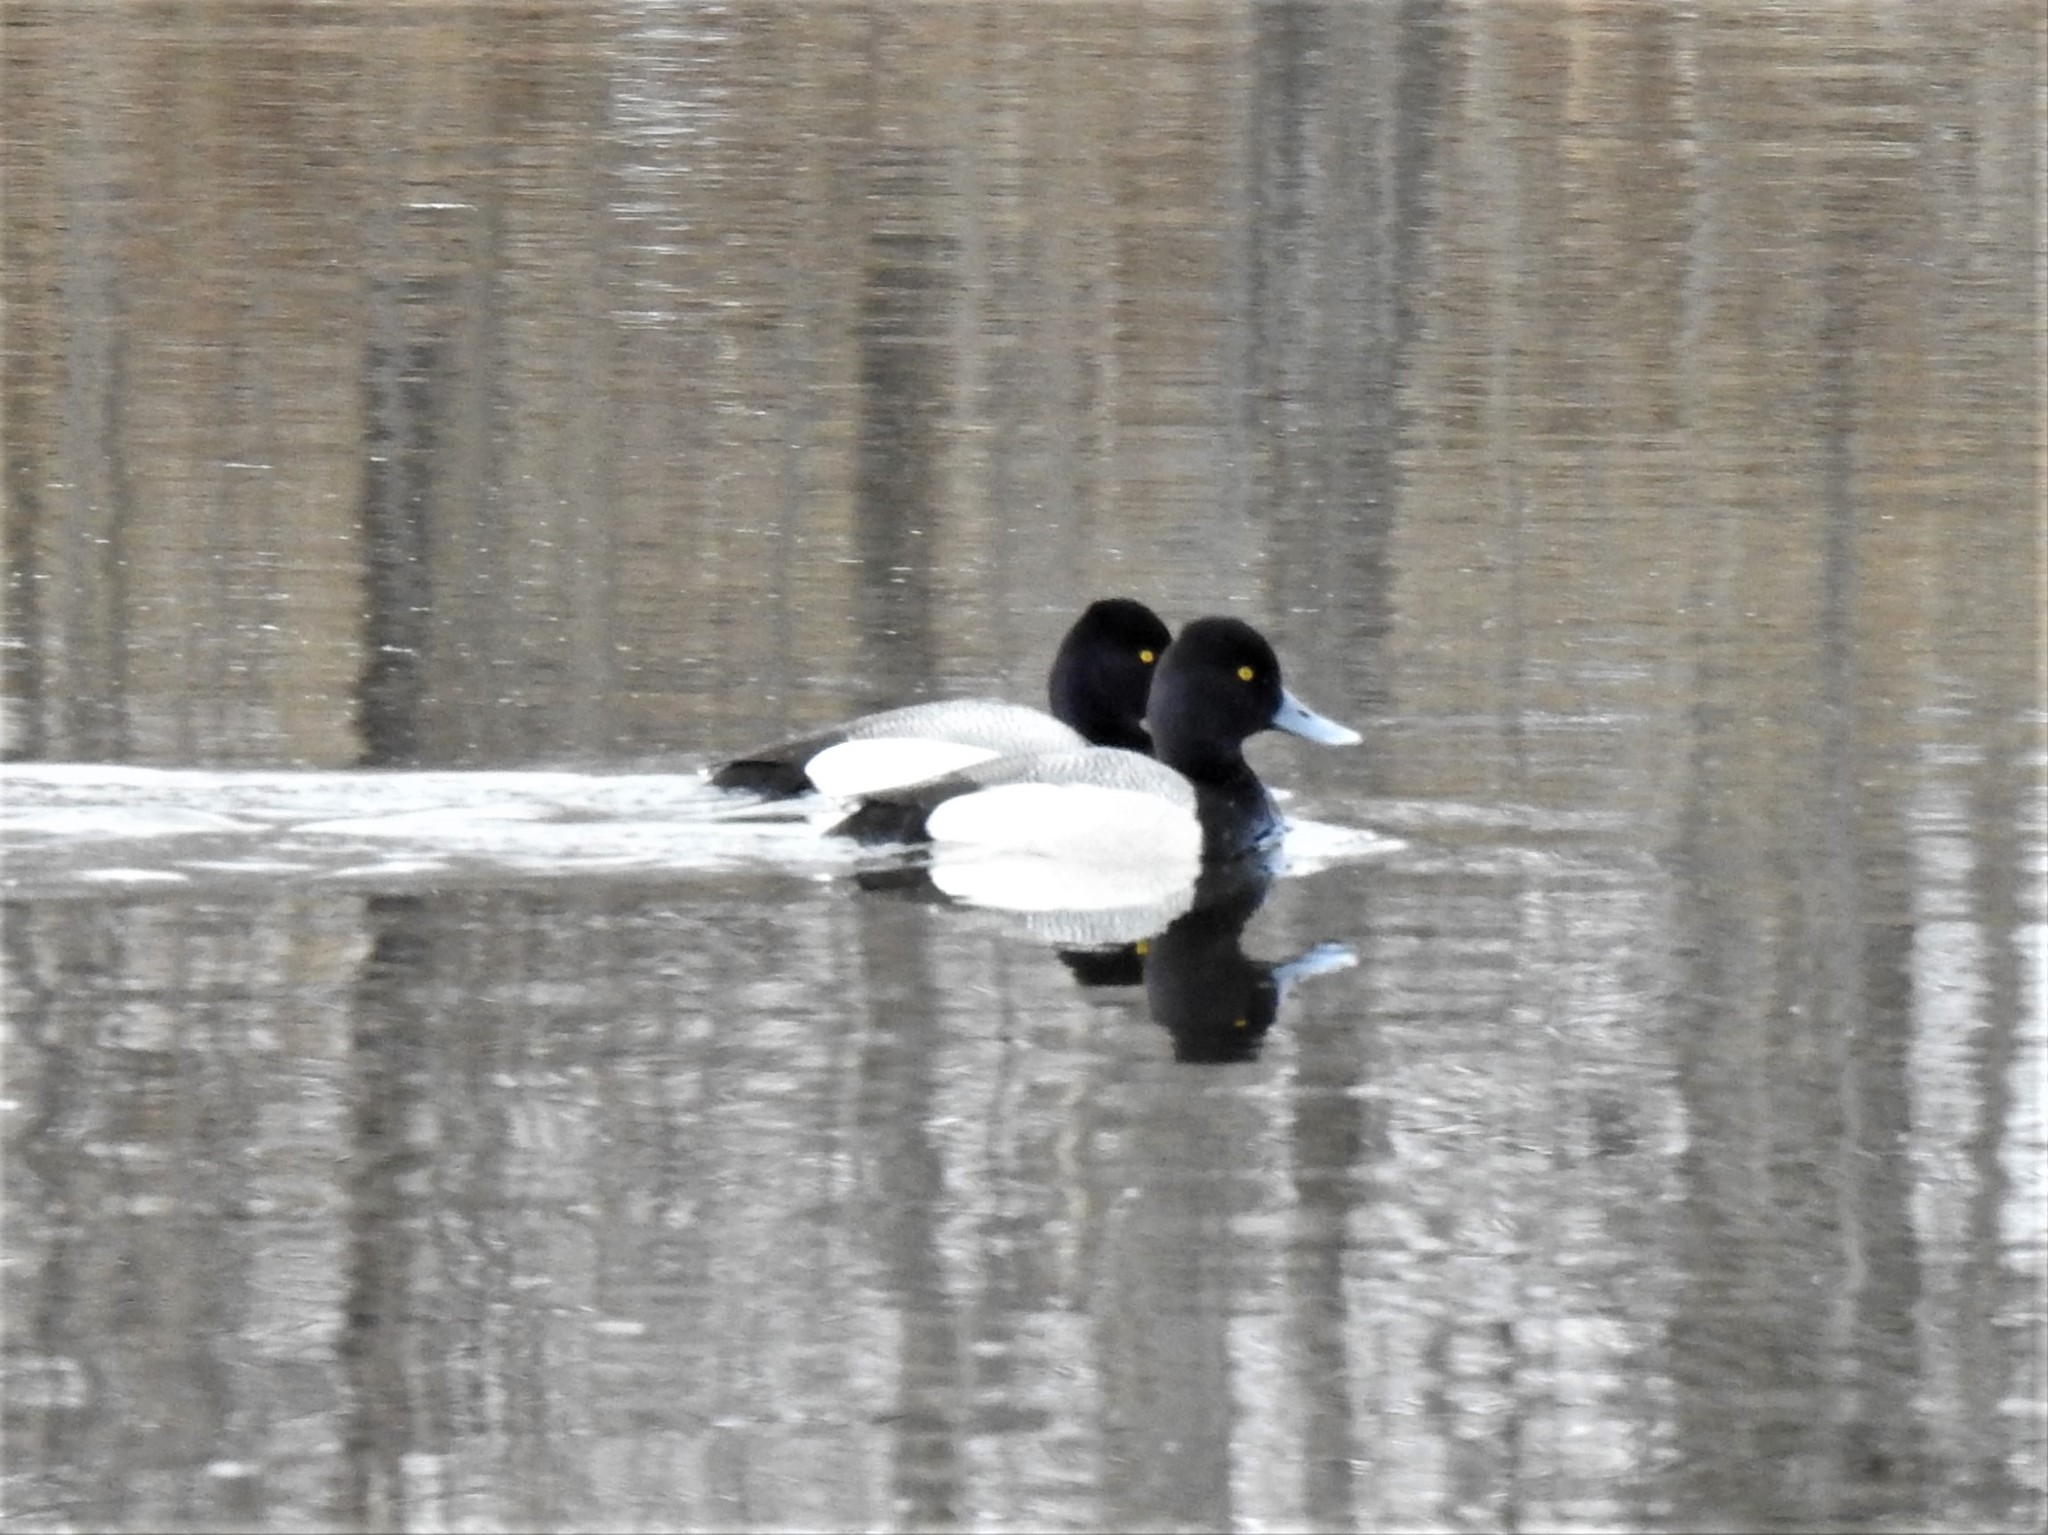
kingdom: Animalia
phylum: Chordata
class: Aves
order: Anseriformes
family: Anatidae
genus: Aythya
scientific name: Aythya affinis
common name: Lesser scaup
